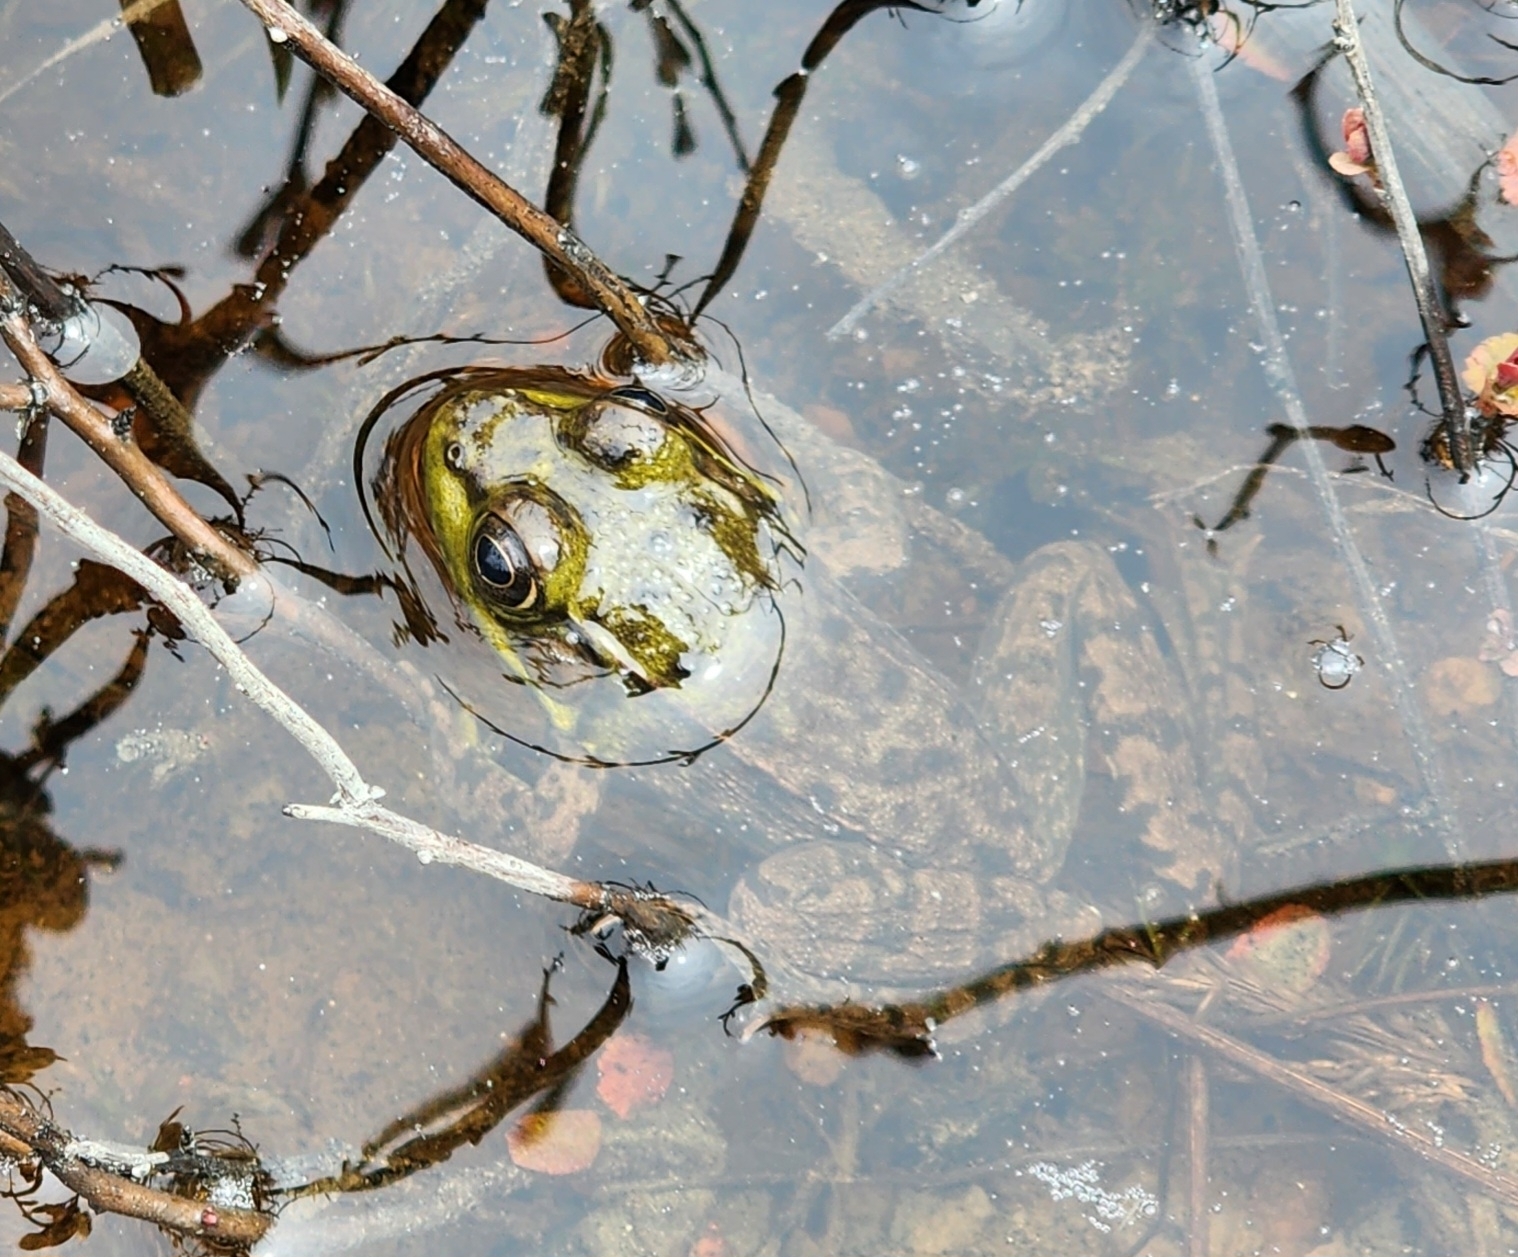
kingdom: Animalia
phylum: Chordata
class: Amphibia
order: Anura
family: Ranidae
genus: Lithobates
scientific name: Lithobates clamitans
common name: Green frog
